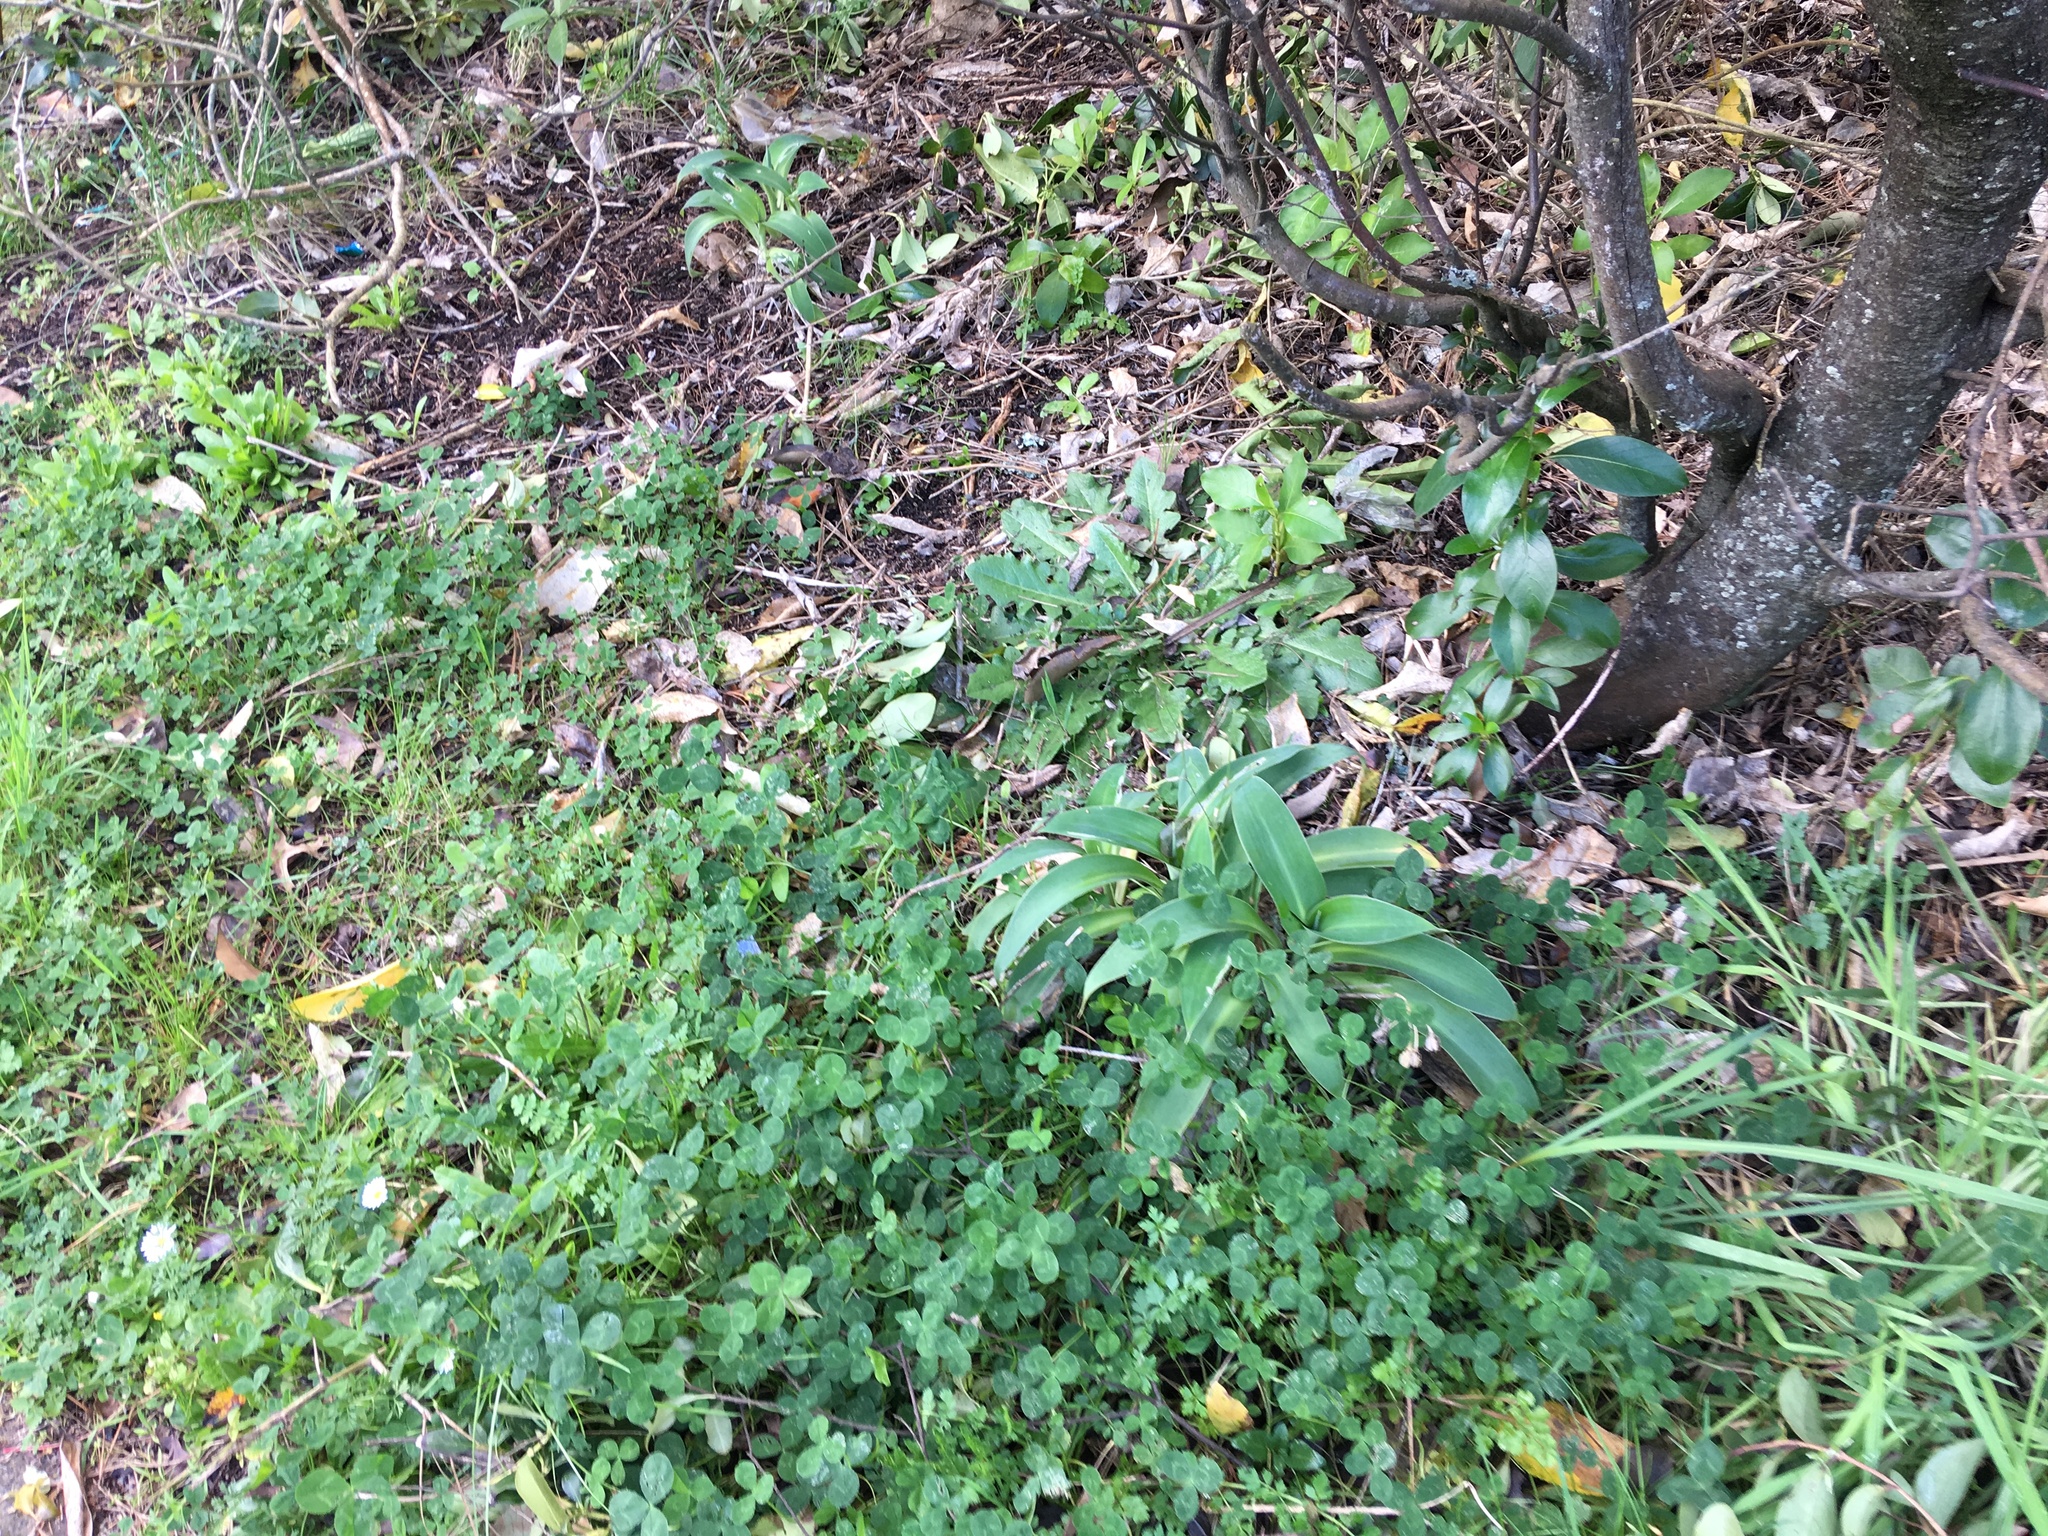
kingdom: Plantae
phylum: Tracheophyta
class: Magnoliopsida
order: Fabales
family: Fabaceae
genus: Trifolium
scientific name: Trifolium repens
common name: White clover
